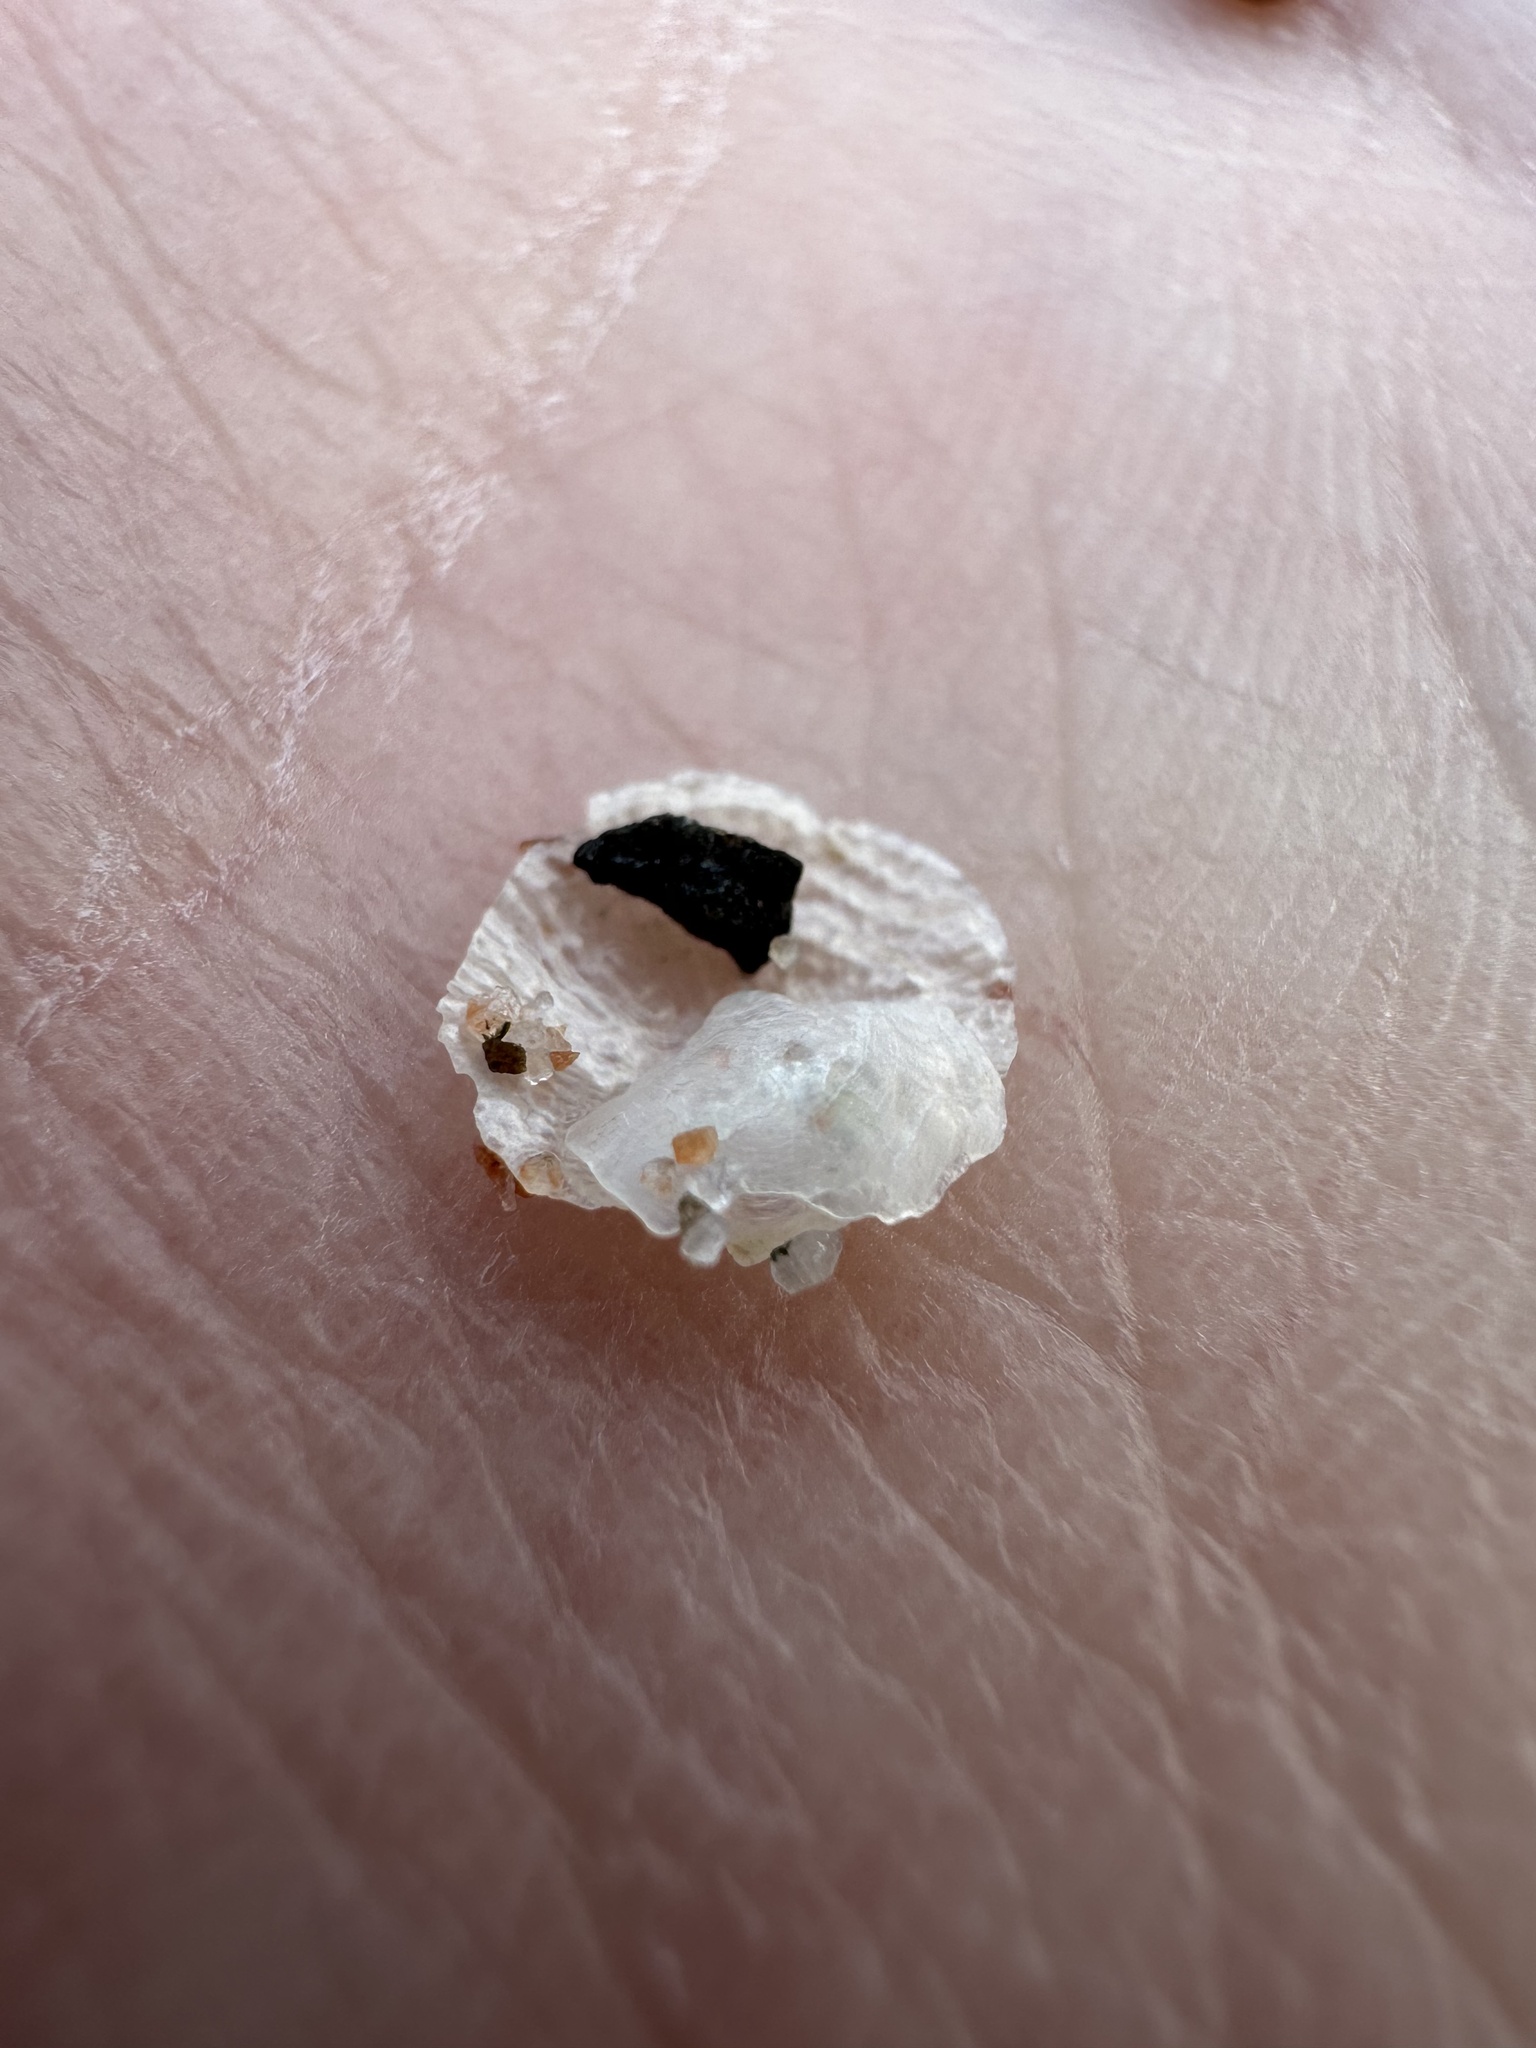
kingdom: Animalia
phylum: Mollusca
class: Bivalvia
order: Pectinida
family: Anomiidae
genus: Heteranomia
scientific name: Heteranomia squamula
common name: Prickly jingle
